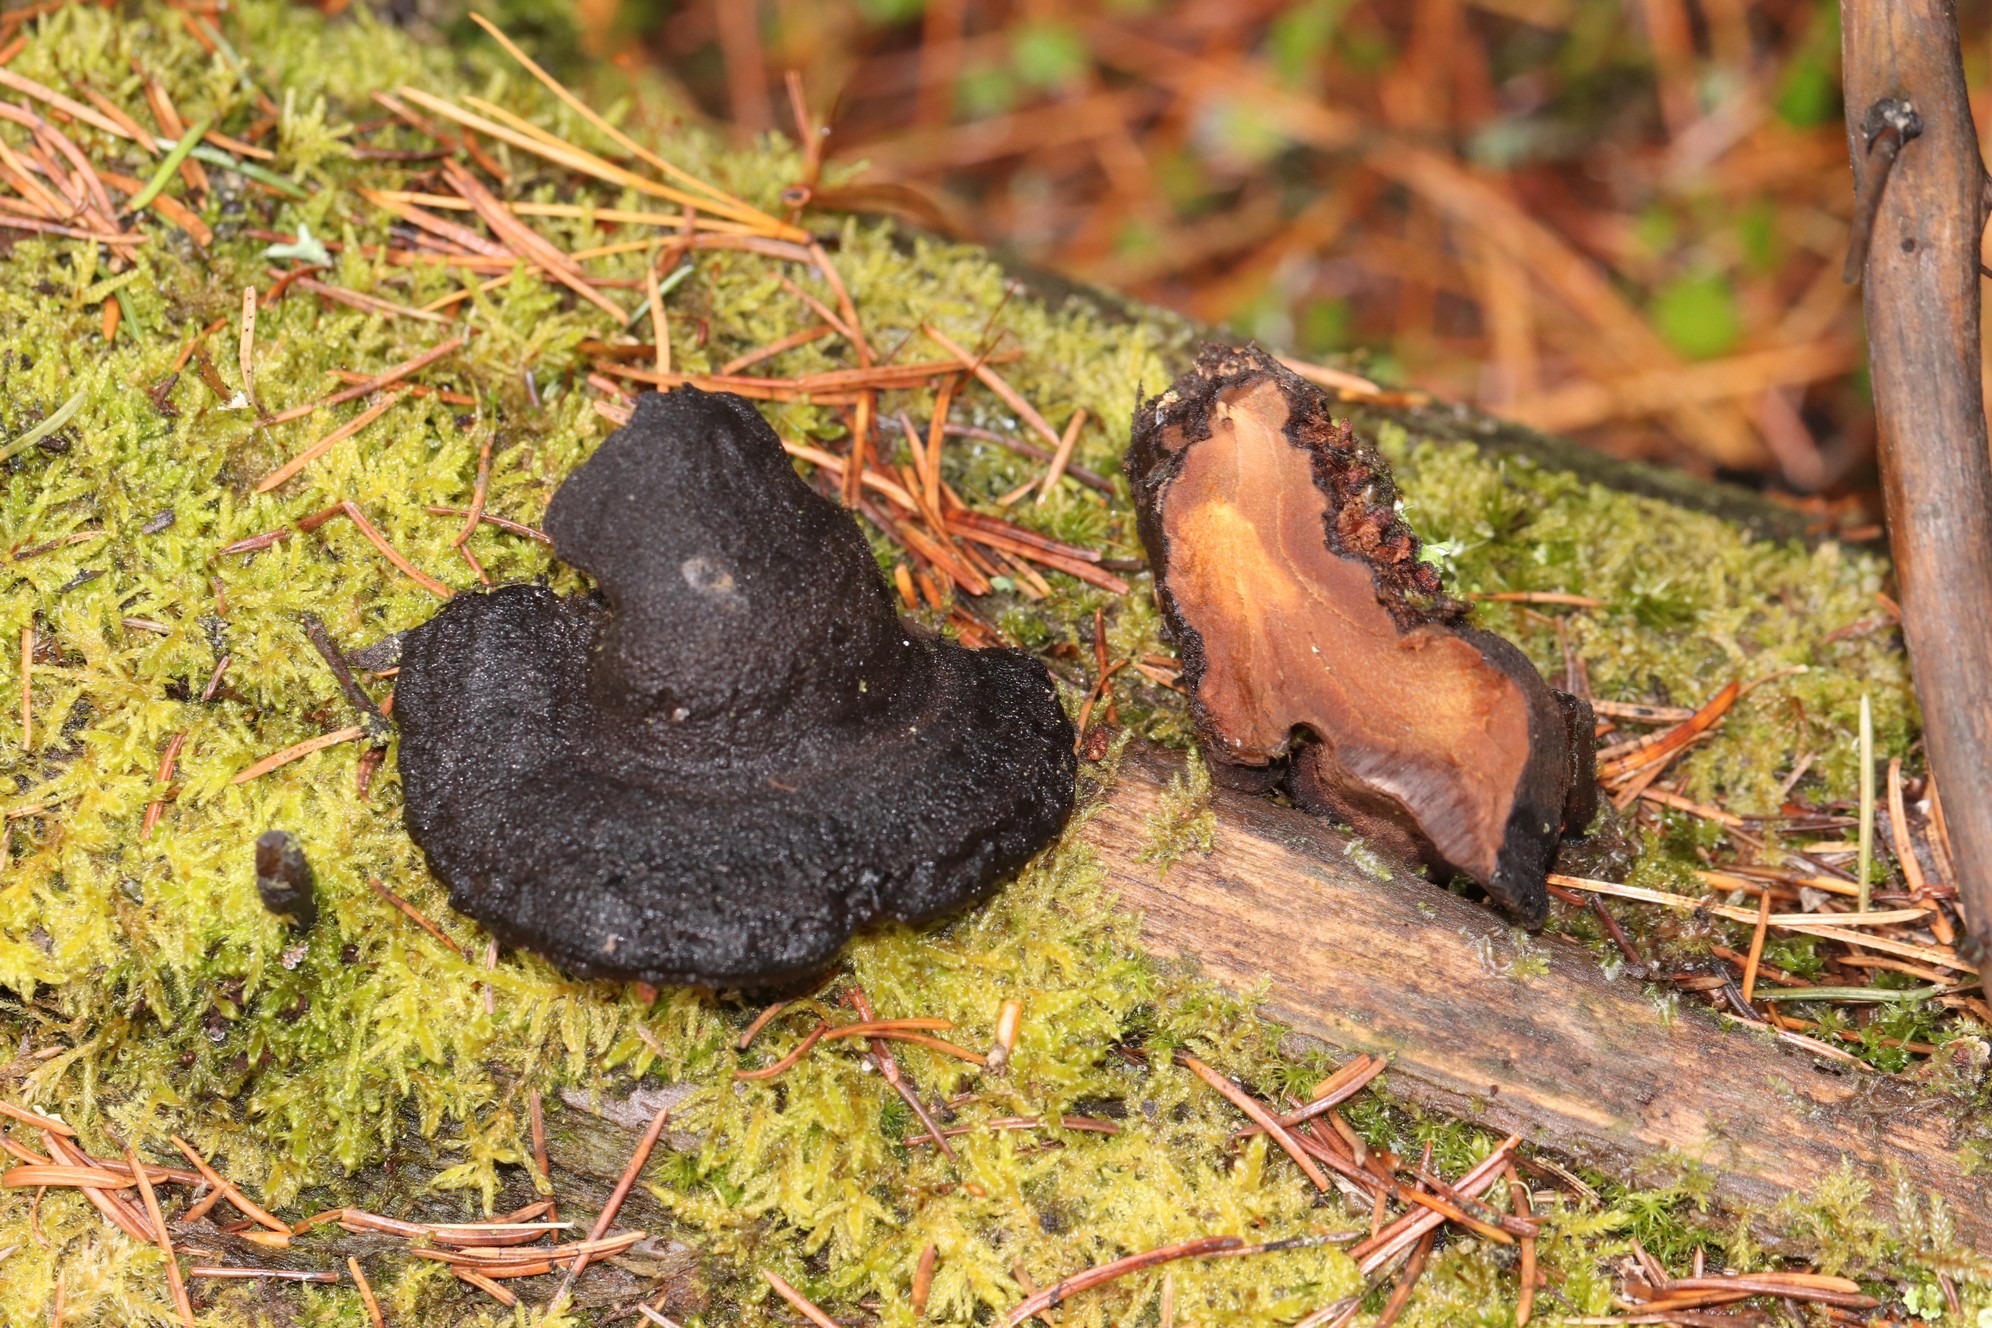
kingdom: Fungi
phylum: Basidiomycota
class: Agaricomycetes
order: Polyporales
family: Ischnodermataceae
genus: Ischnoderma
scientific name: Ischnoderma benzoinum
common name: Benzoin bracket
